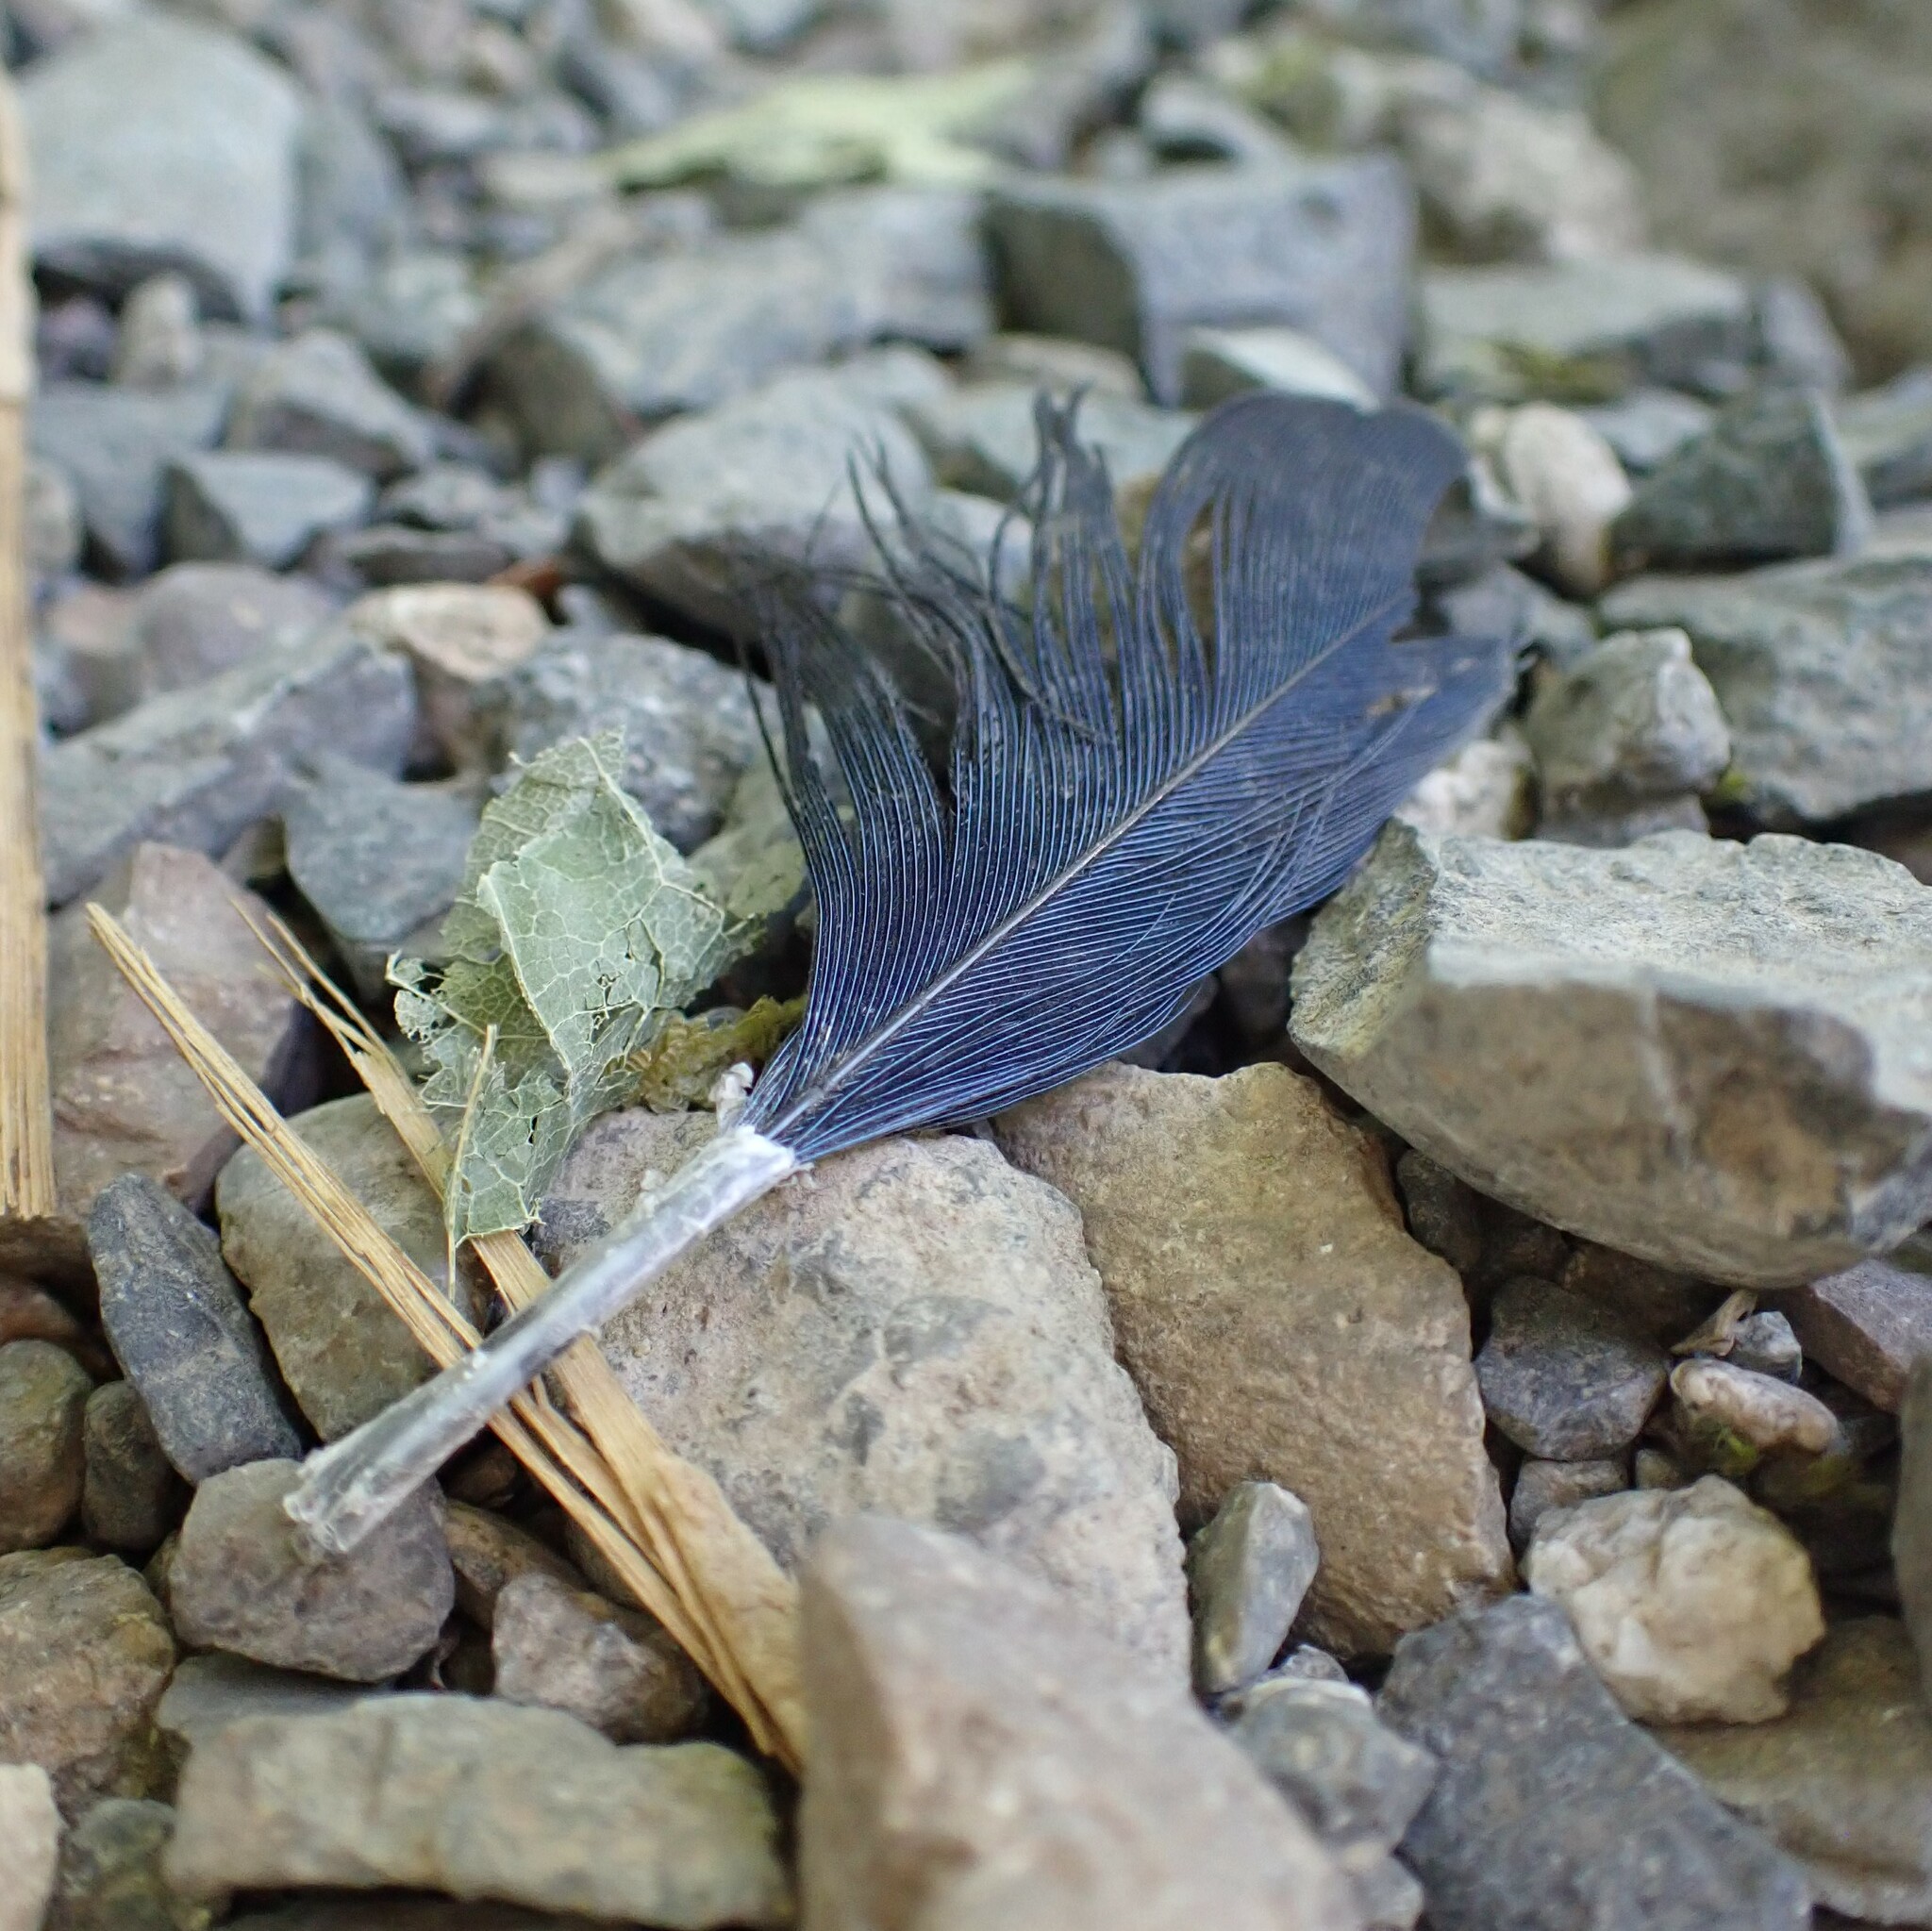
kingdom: Animalia
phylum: Chordata
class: Aves
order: Passeriformes
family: Corvidae
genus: Cyanocitta
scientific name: Cyanocitta stelleri
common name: Steller's jay
